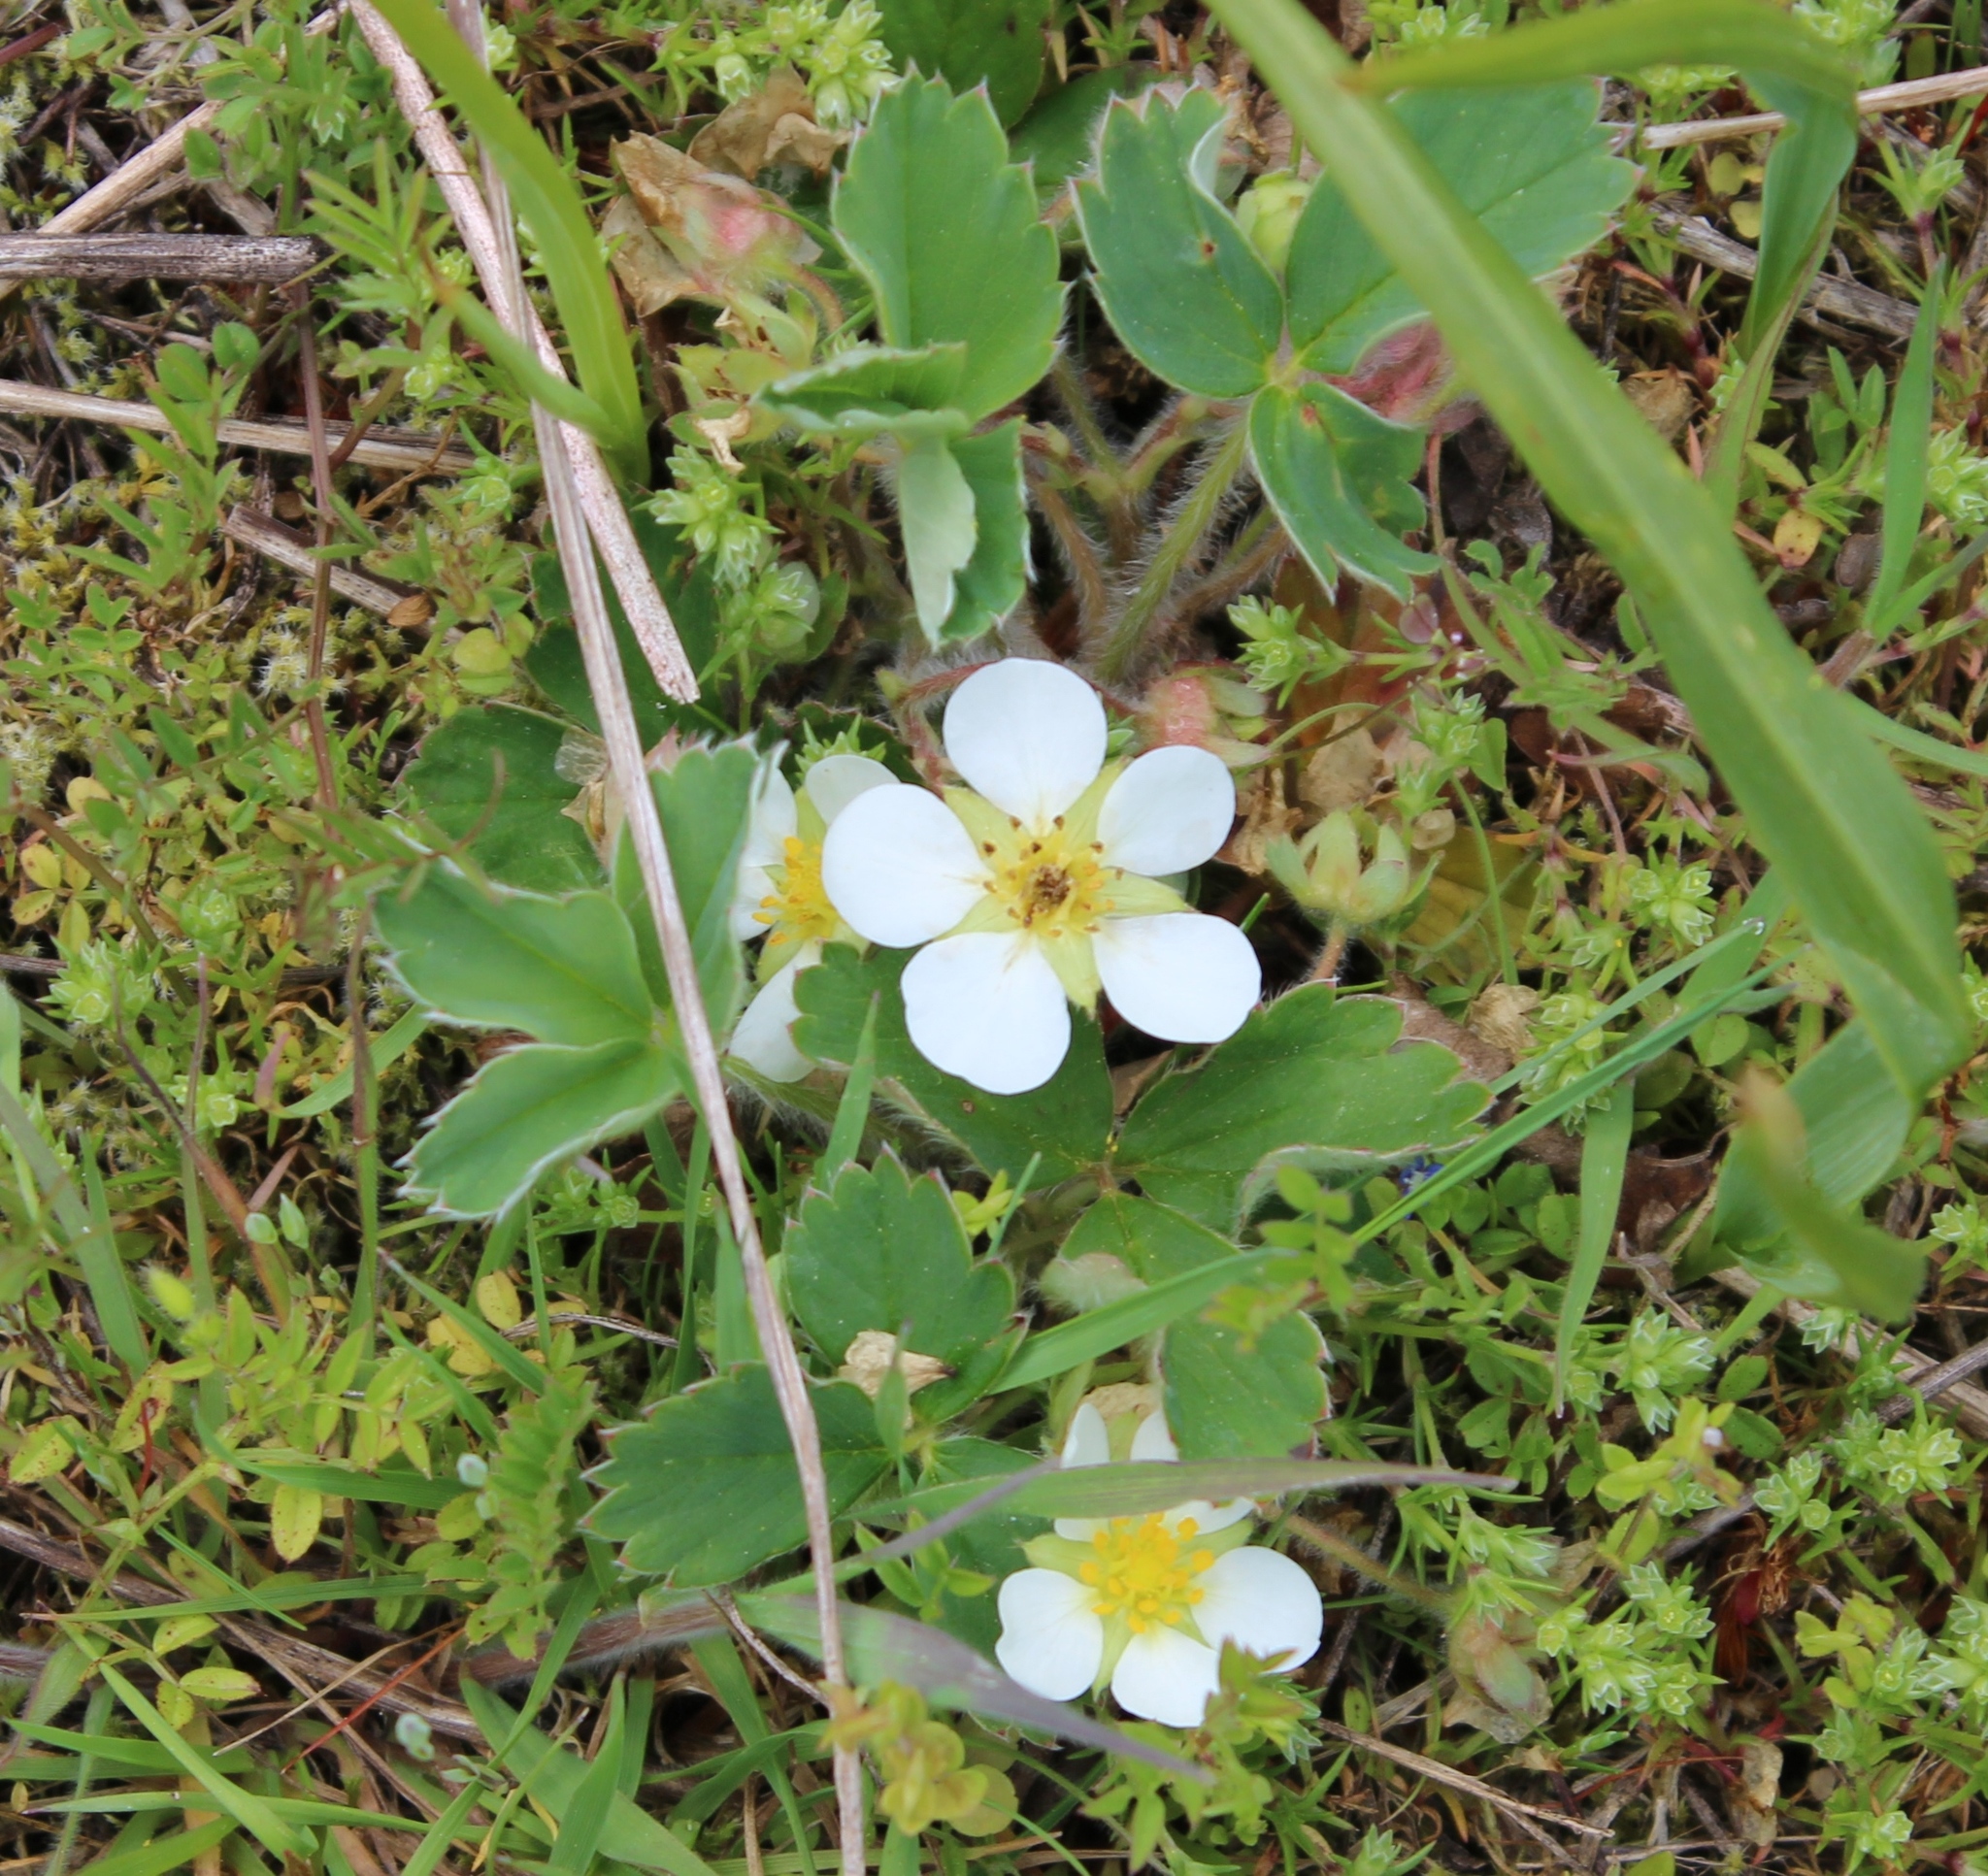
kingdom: Plantae
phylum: Tracheophyta
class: Magnoliopsida
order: Rosales
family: Rosaceae
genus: Fragaria
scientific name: Fragaria virginiana
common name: Thickleaved wild strawberry
